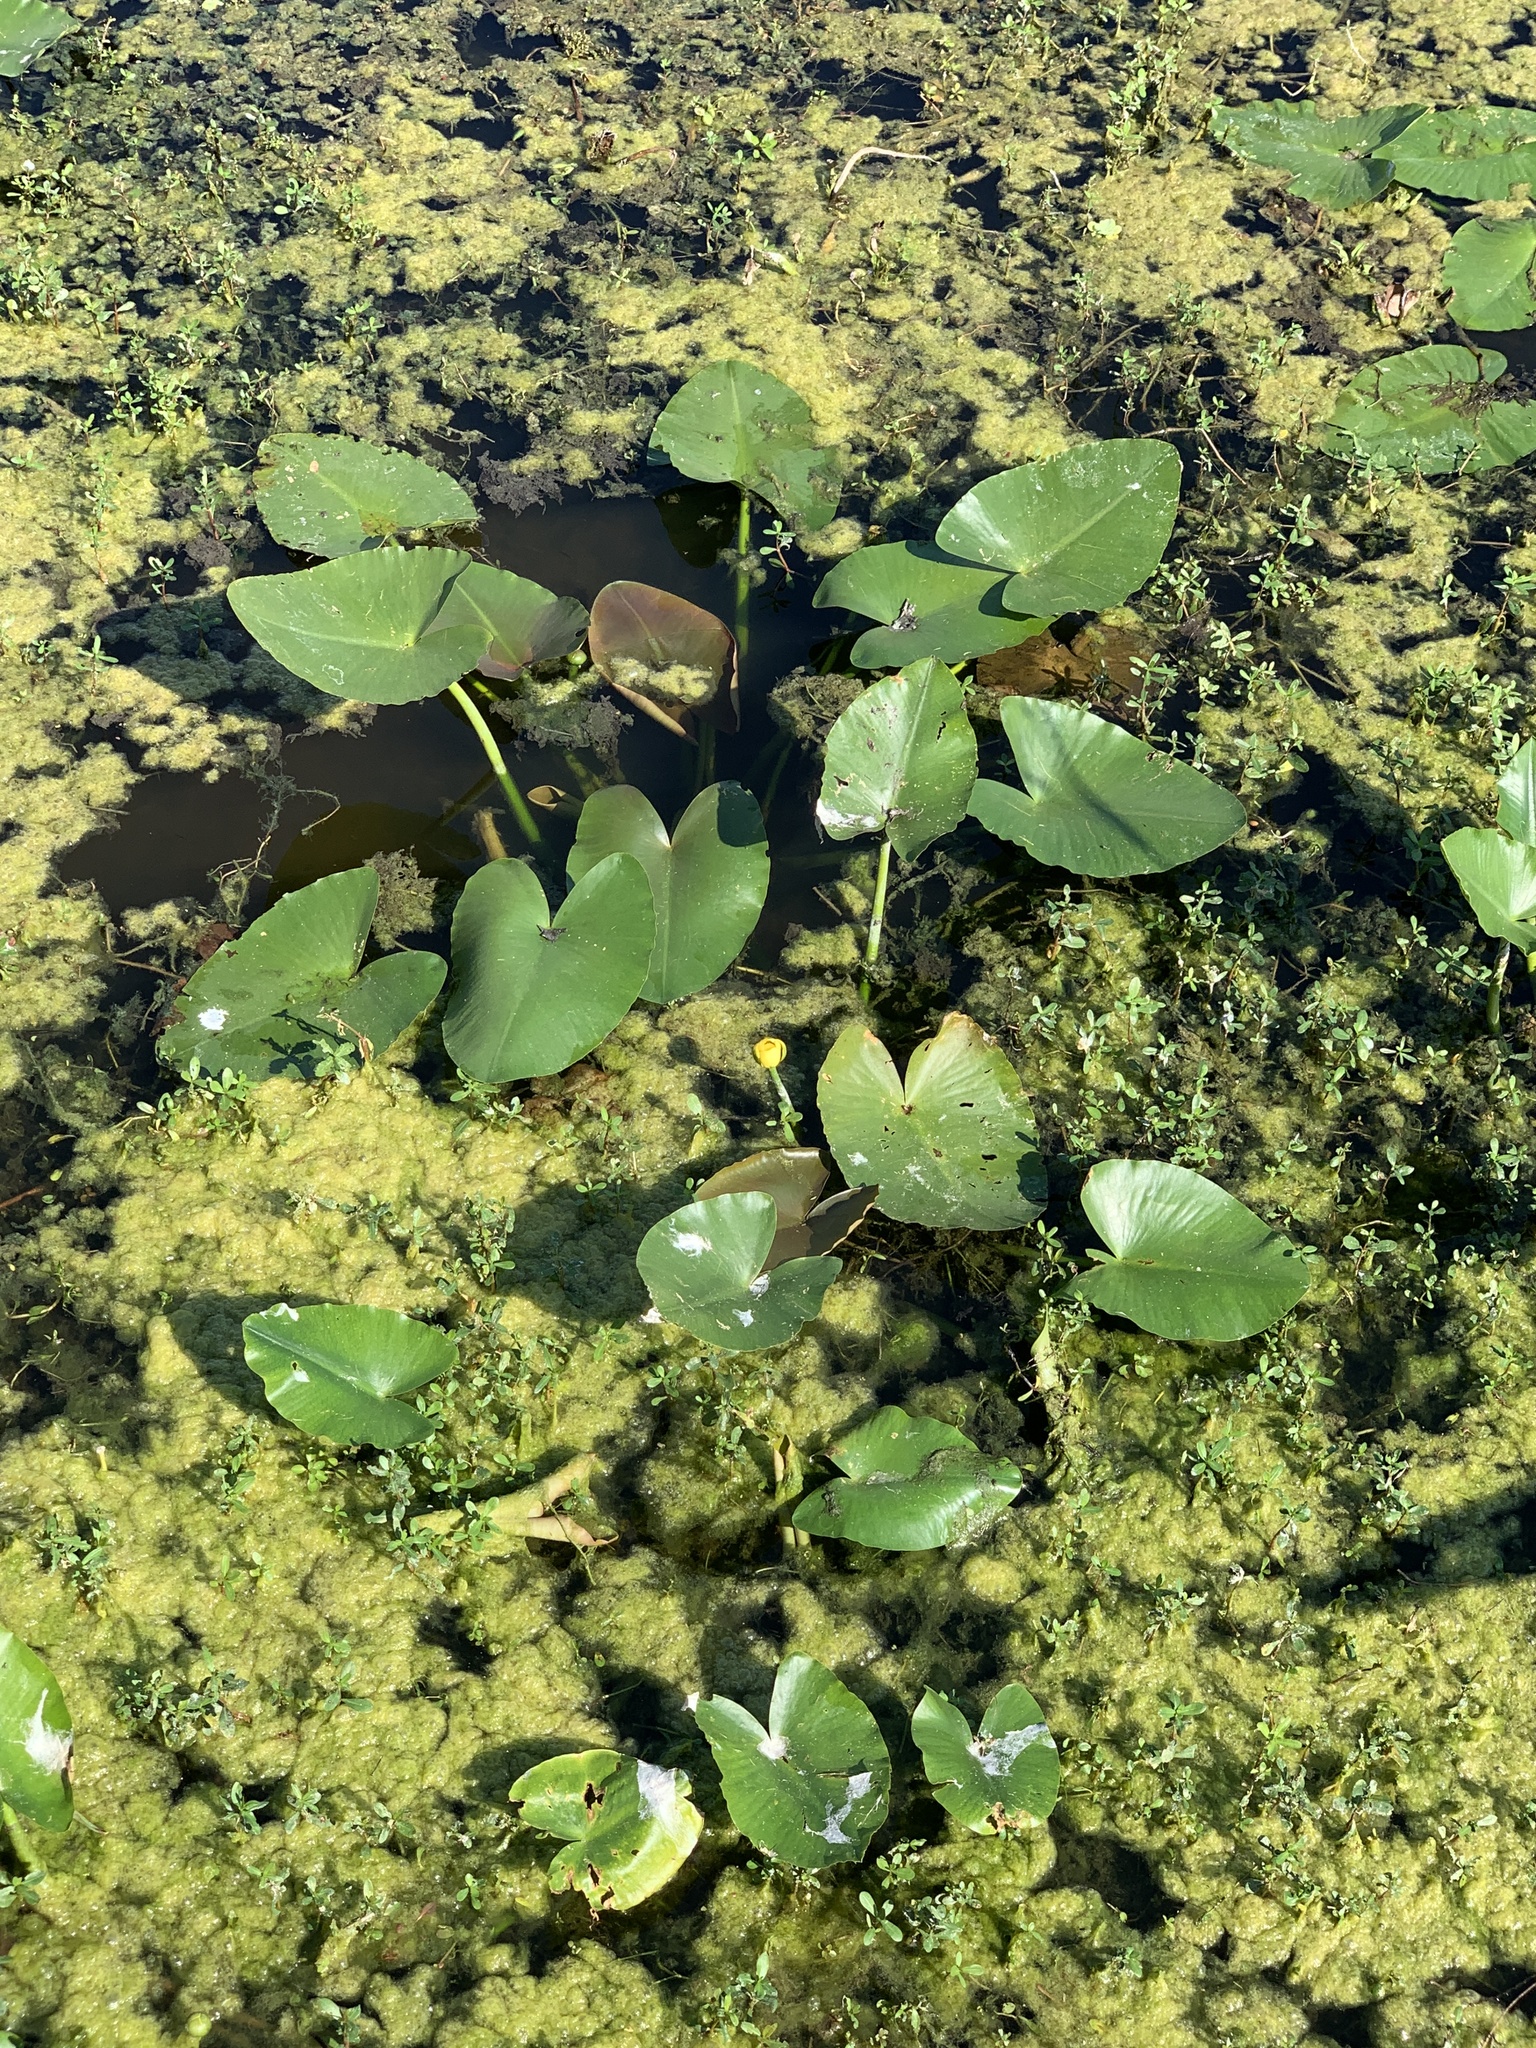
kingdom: Plantae
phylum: Tracheophyta
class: Magnoliopsida
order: Nymphaeales
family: Nymphaeaceae
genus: Nuphar
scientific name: Nuphar advena
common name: Spatter-dock
